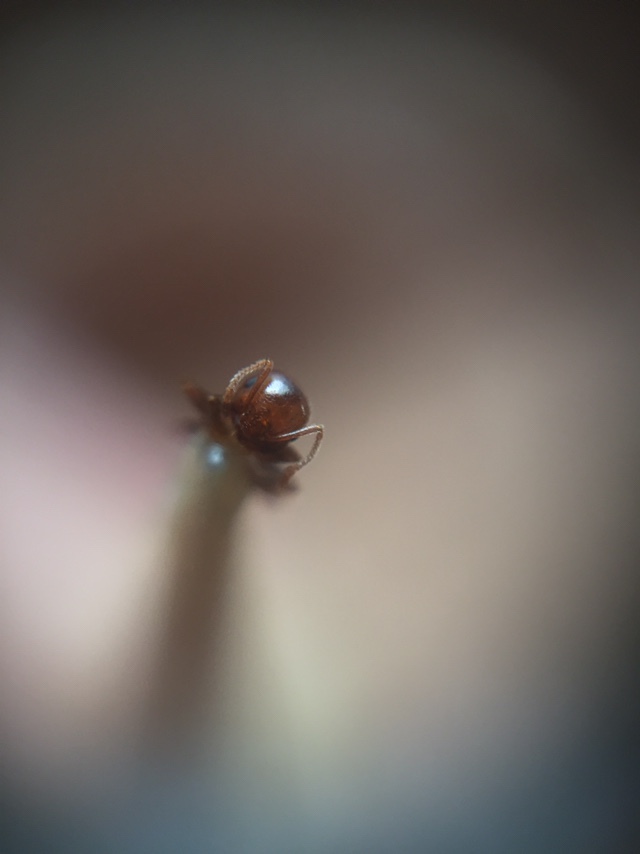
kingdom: Animalia
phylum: Arthropoda
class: Insecta
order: Hymenoptera
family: Formicidae
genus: Crematogaster
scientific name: Crematogaster
